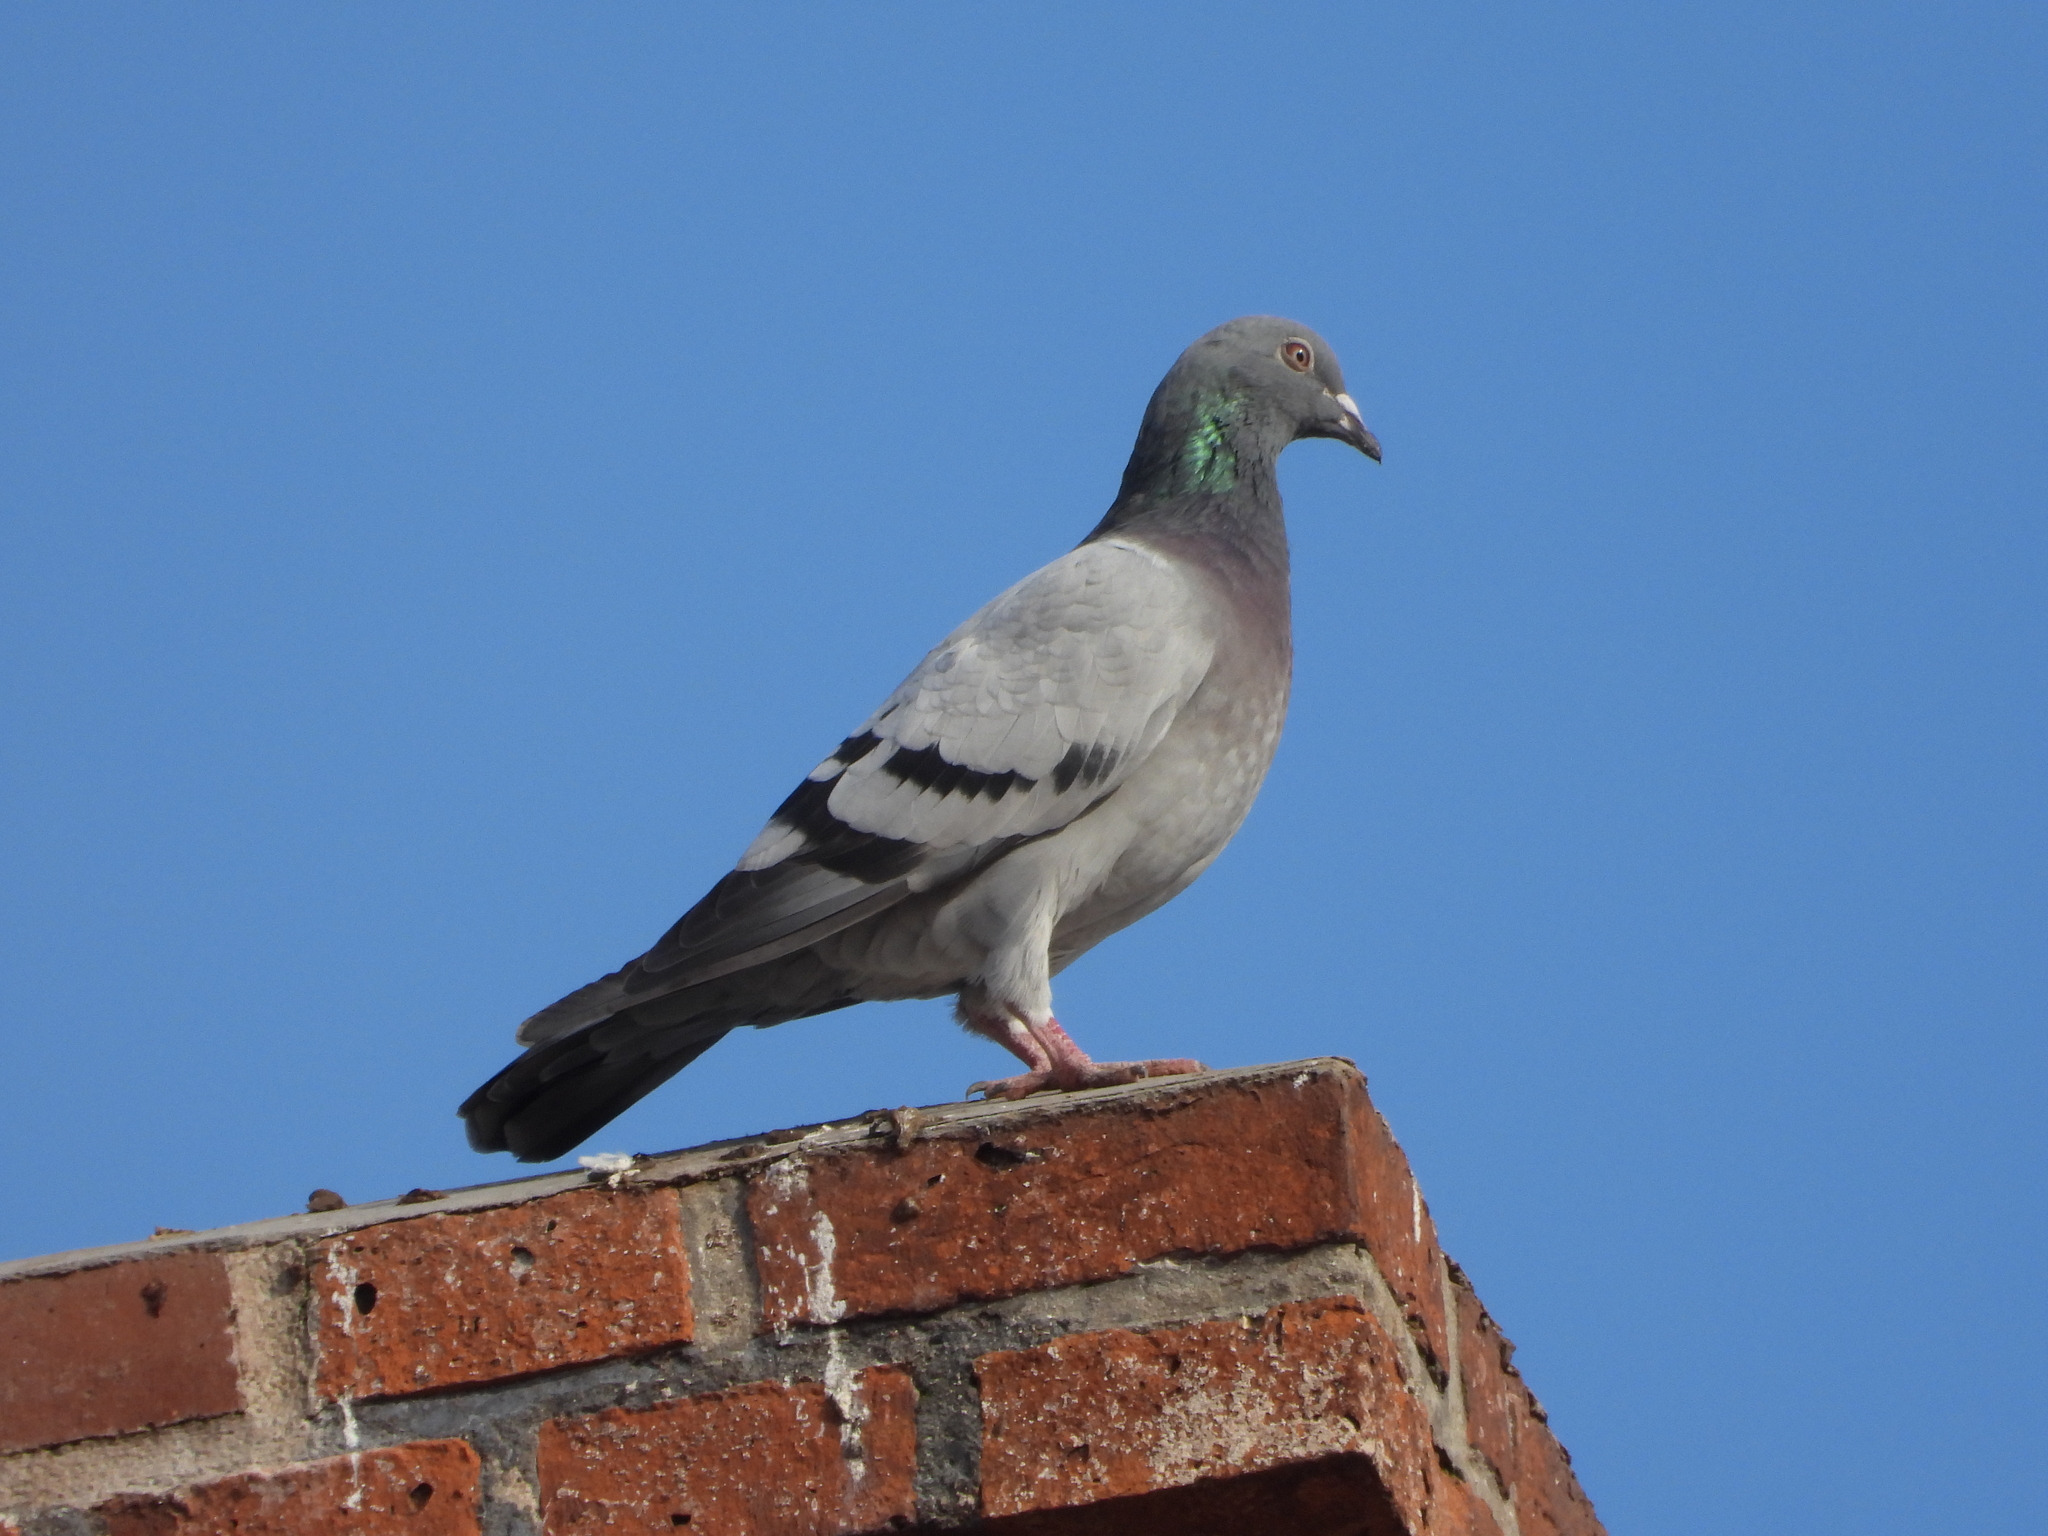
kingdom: Animalia
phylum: Chordata
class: Aves
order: Columbiformes
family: Columbidae
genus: Columba
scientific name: Columba livia
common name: Rock pigeon
